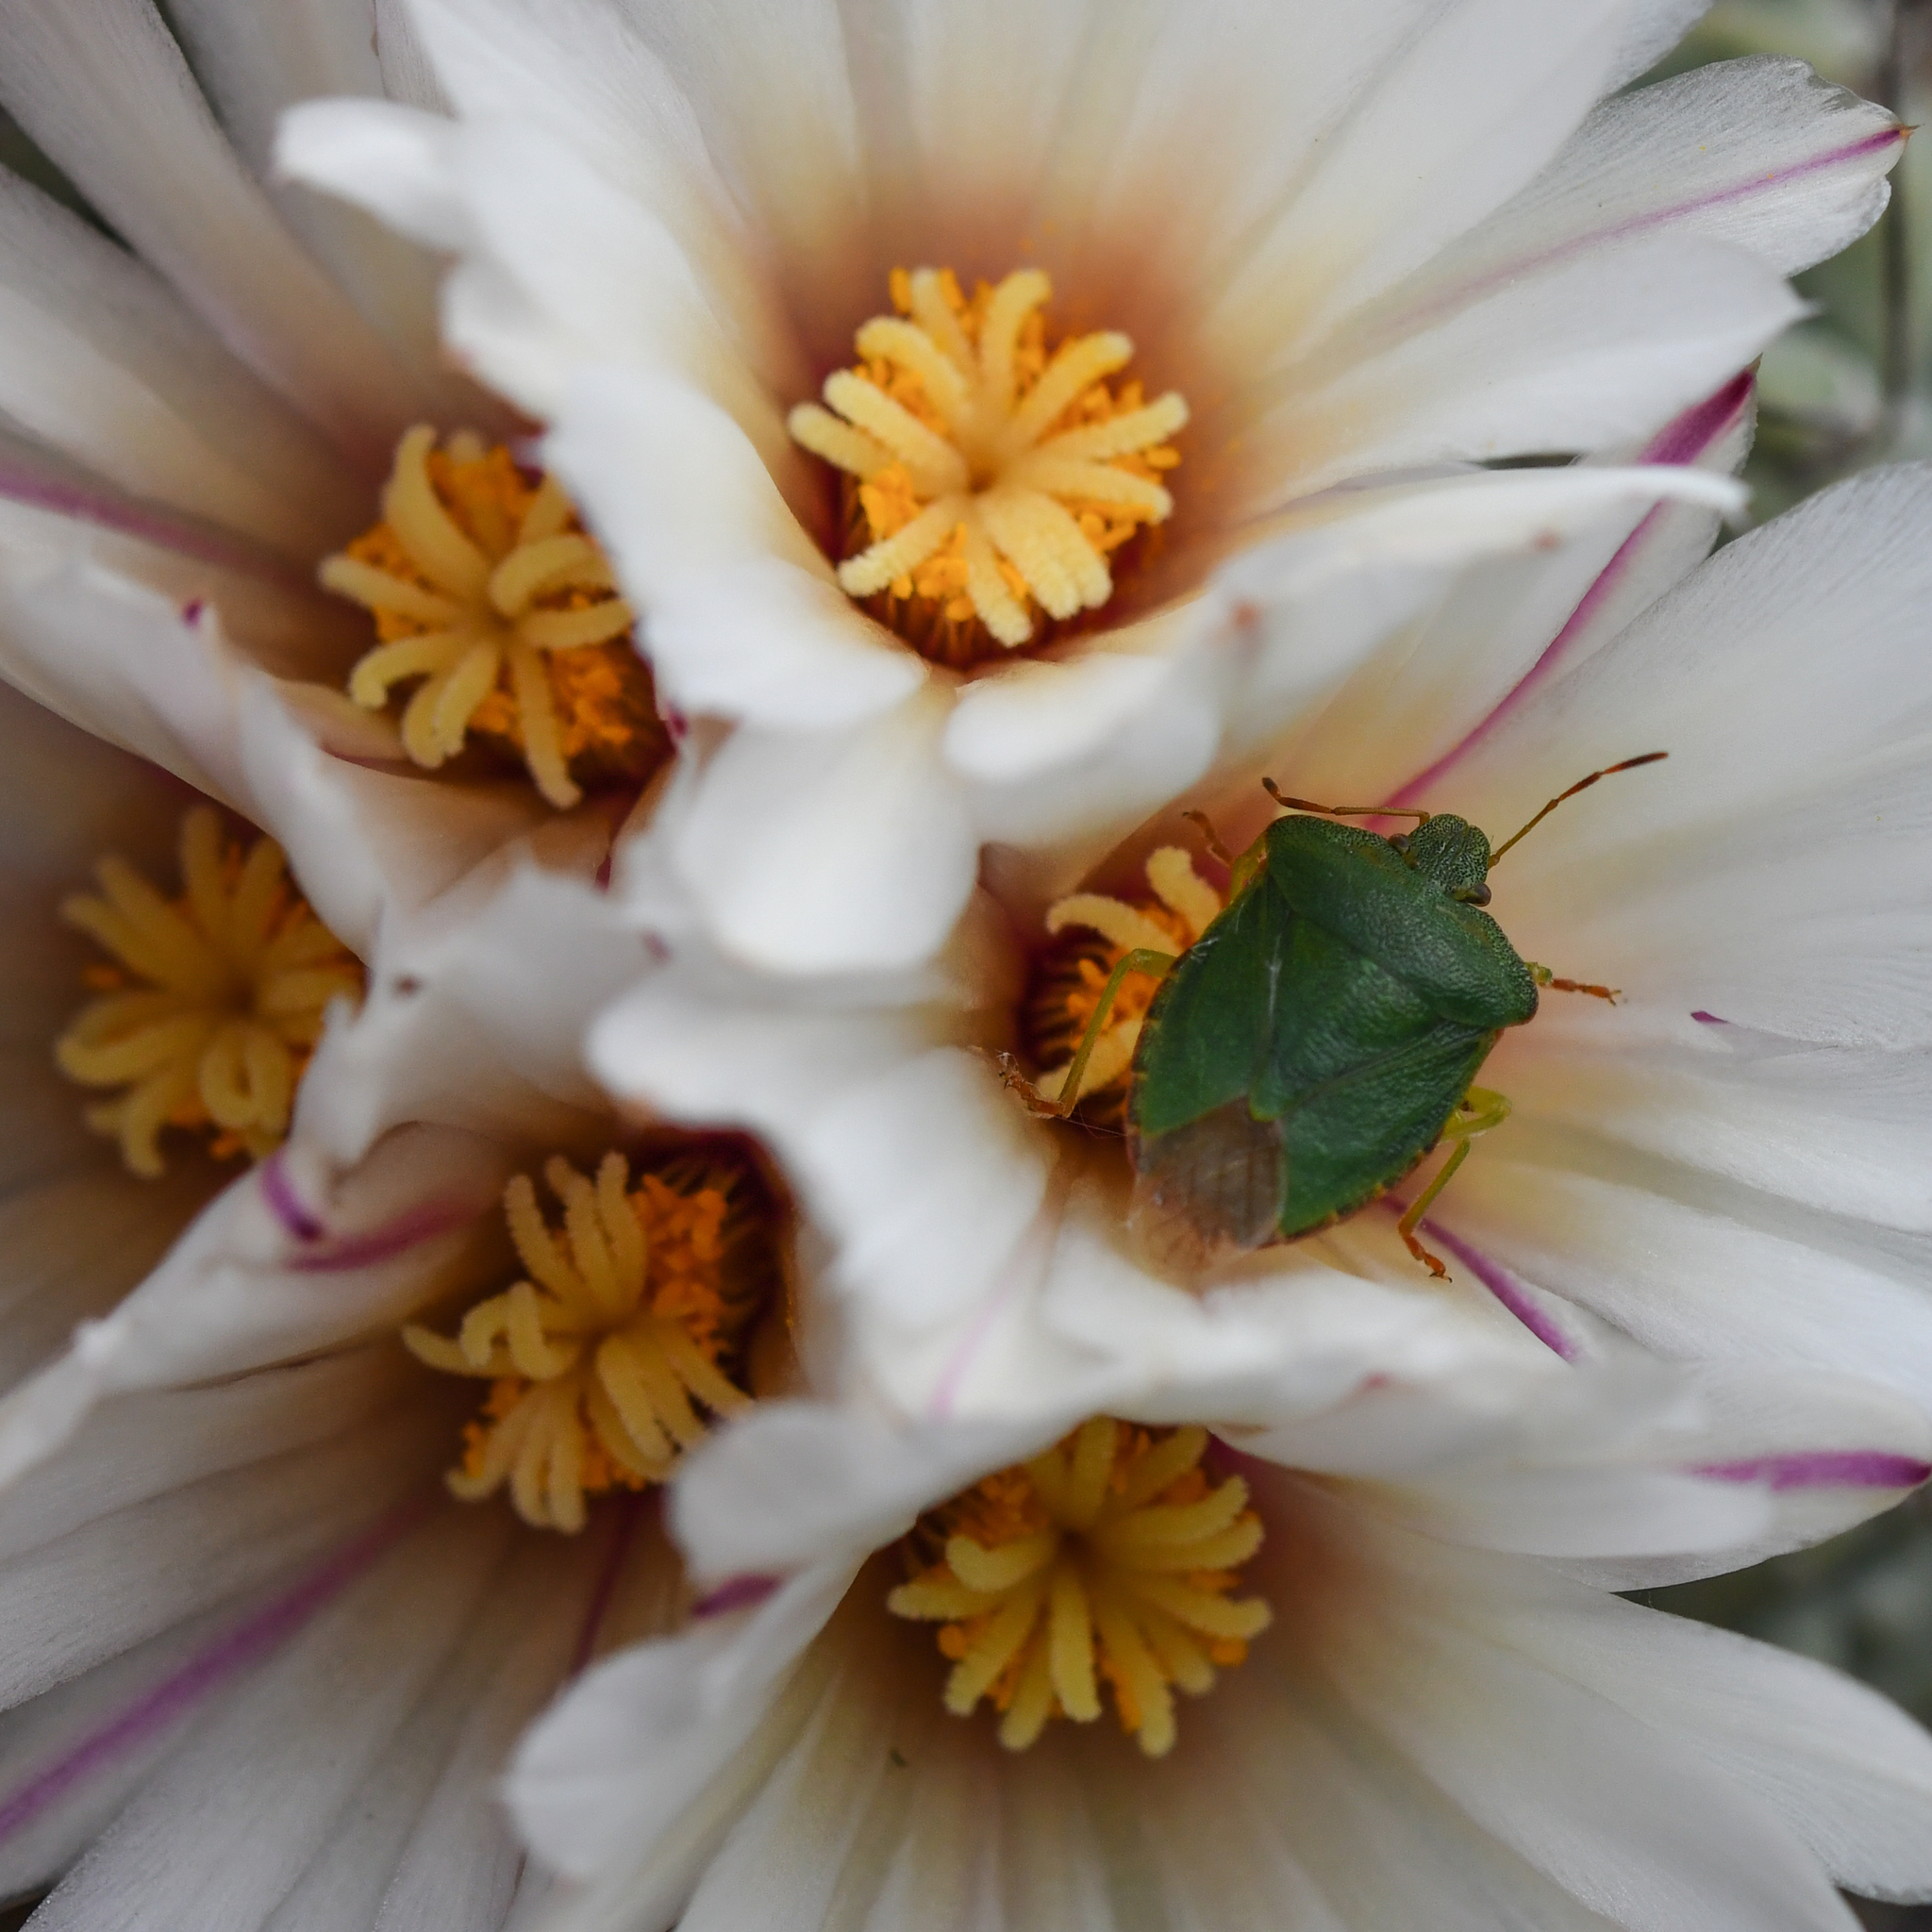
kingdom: Animalia
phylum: Arthropoda
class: Insecta
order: Hemiptera
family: Pentatomidae
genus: Palomena
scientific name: Palomena prasina
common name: Green shieldbug
